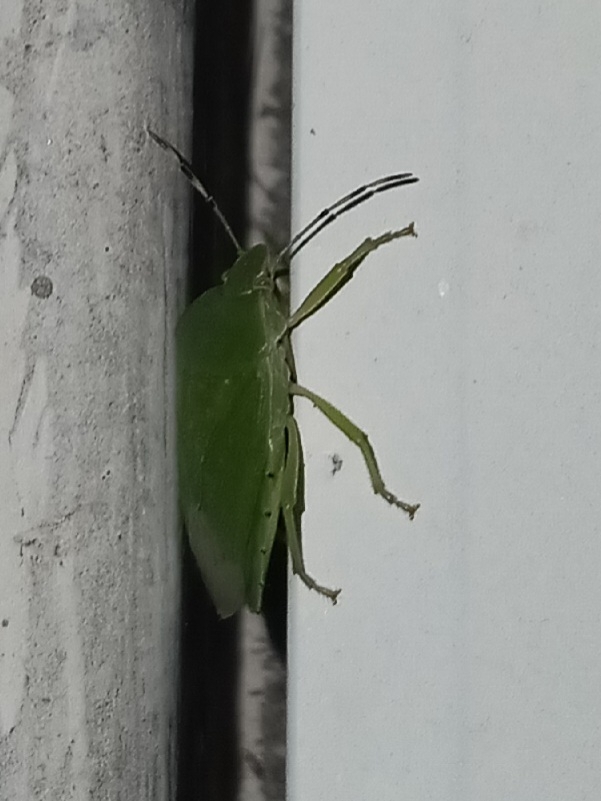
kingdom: Animalia
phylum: Arthropoda
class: Insecta
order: Hemiptera
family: Pentatomidae
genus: Chinavia
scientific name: Chinavia hilaris
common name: Green stink bug
